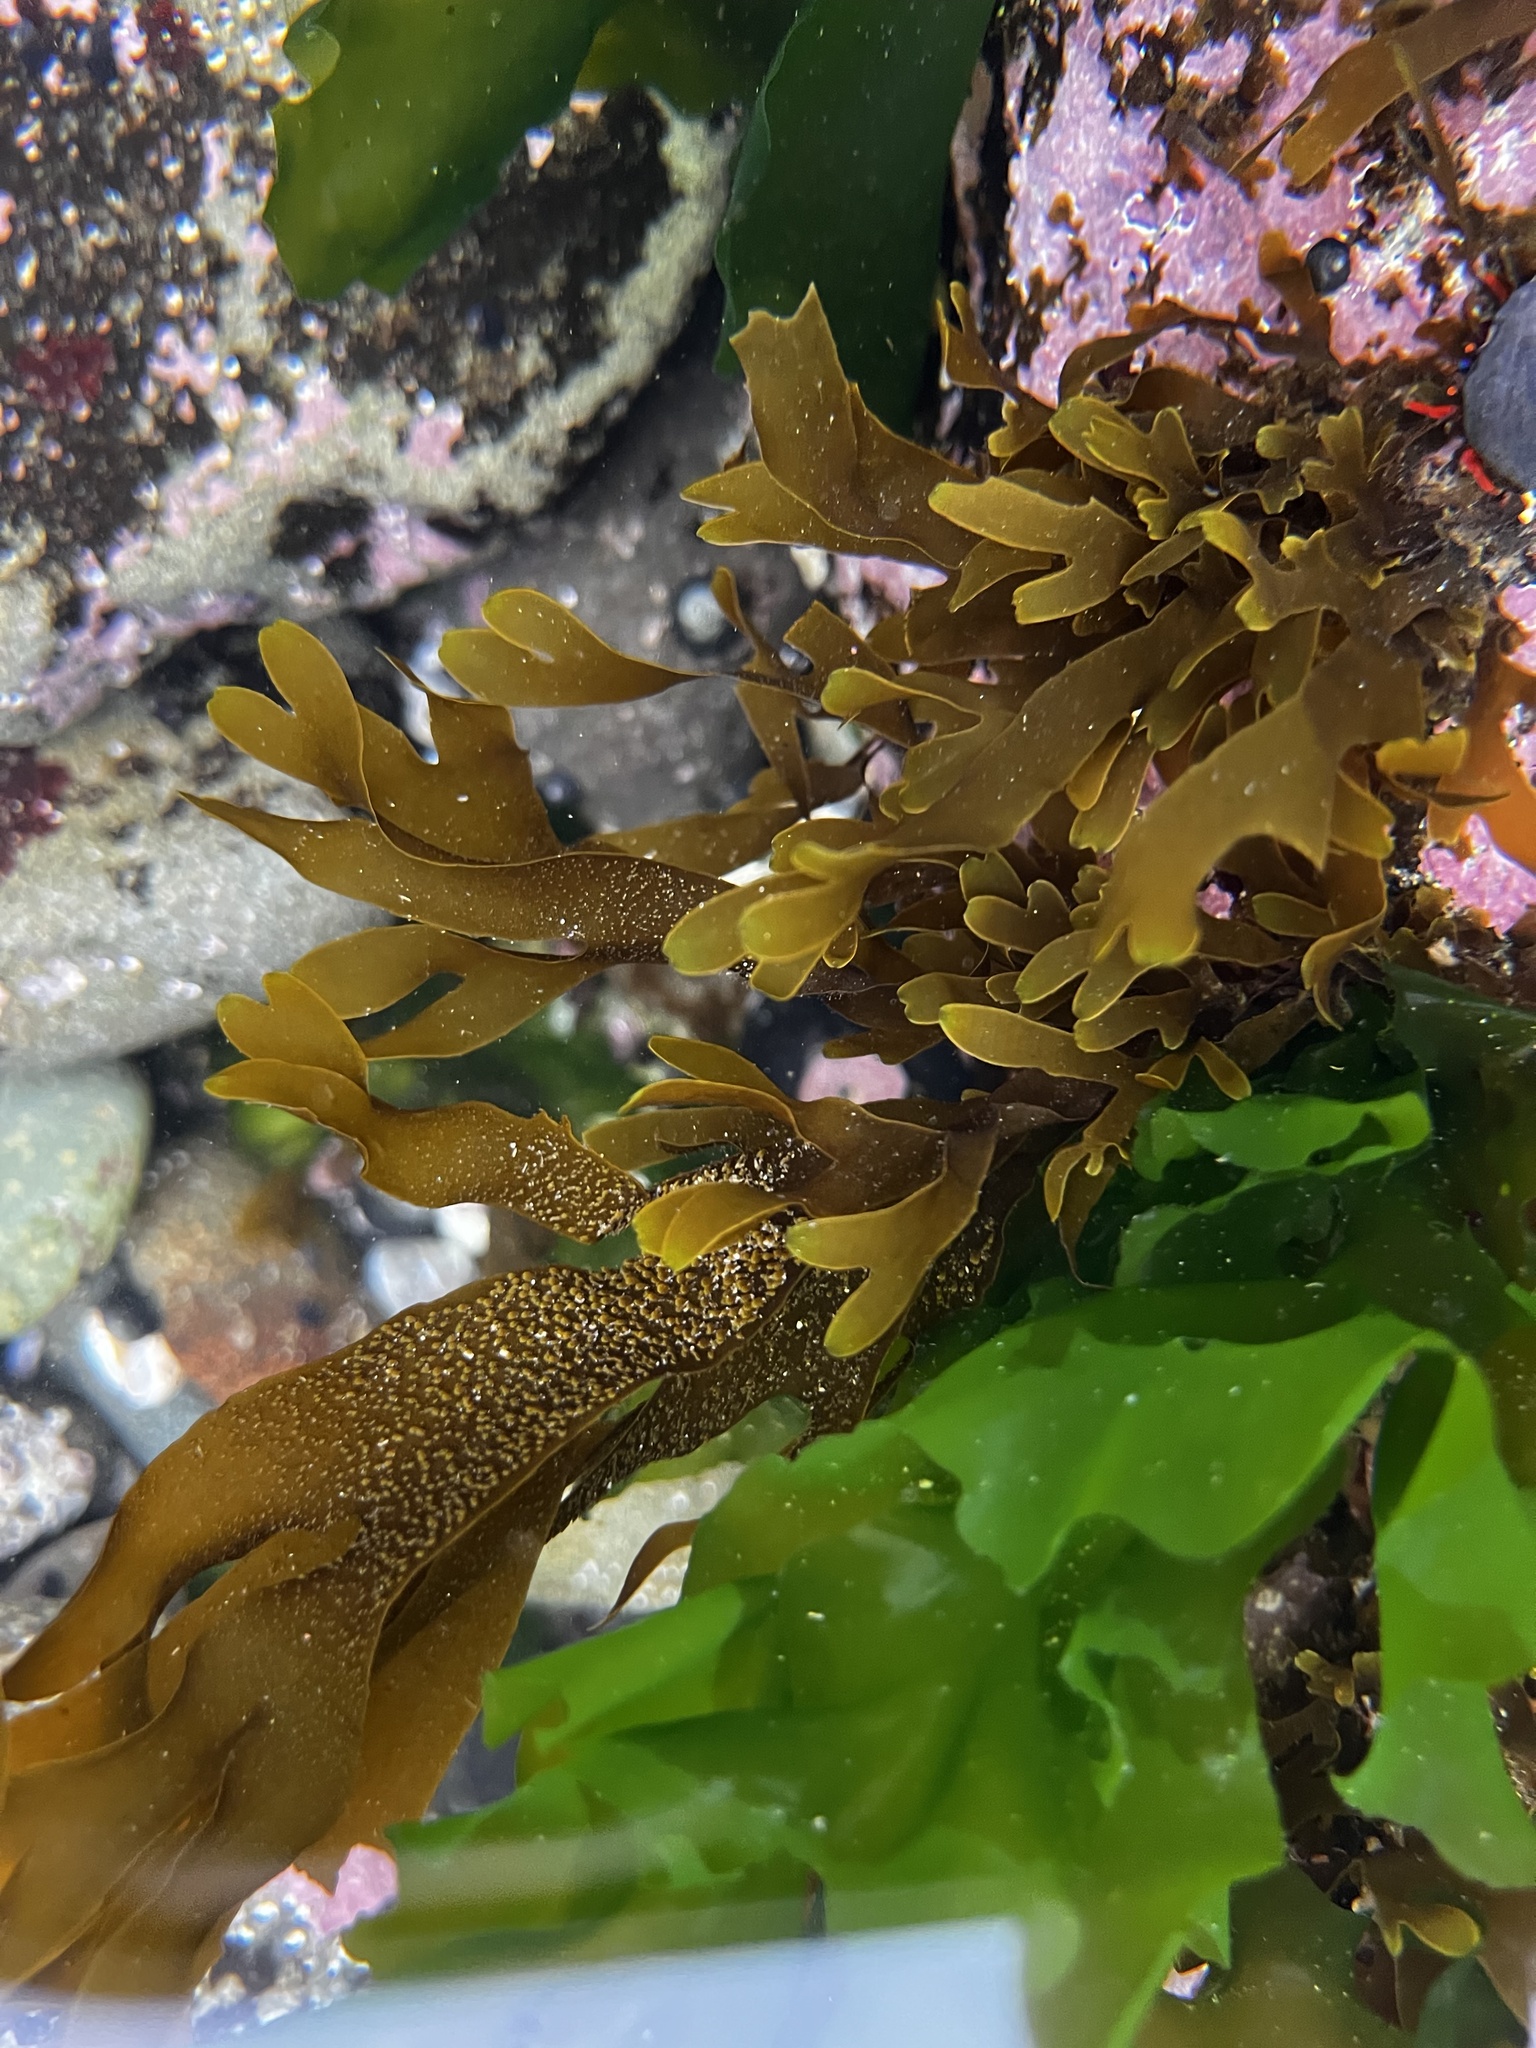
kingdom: Chromista
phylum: Ochrophyta
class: Phaeophyceae
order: Dictyotales
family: Dictyotaceae
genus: Dictyota
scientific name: Dictyota kunthii
